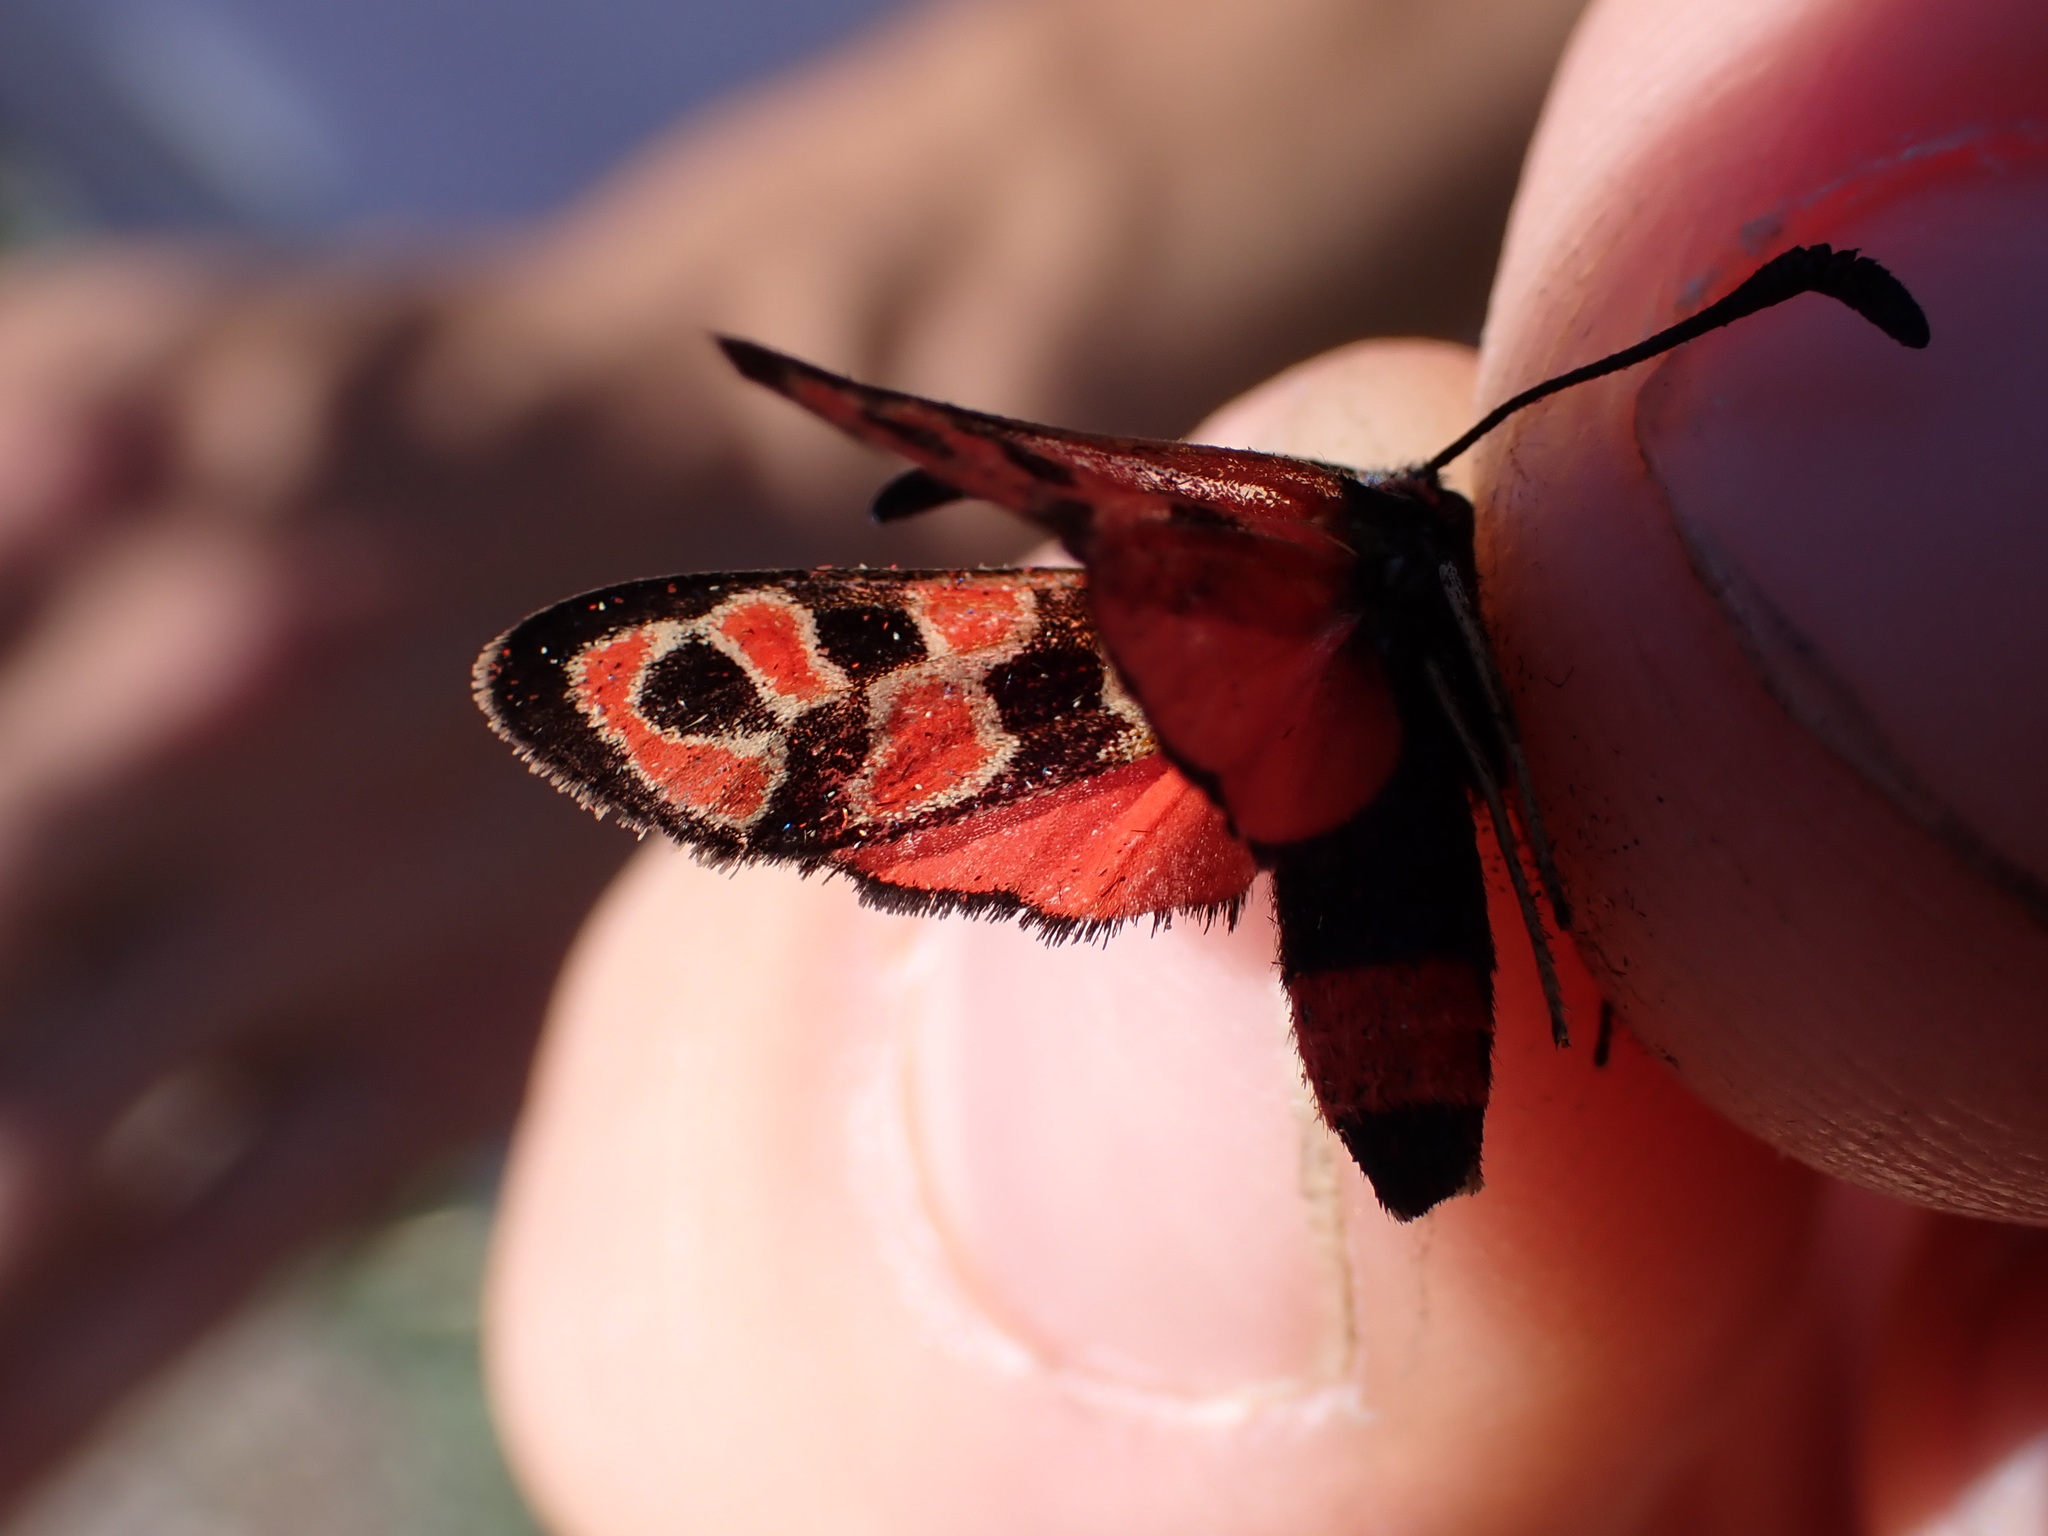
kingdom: Animalia
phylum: Arthropoda
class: Insecta
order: Lepidoptera
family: Zygaenidae
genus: Zygaena
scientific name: Zygaena fausta
